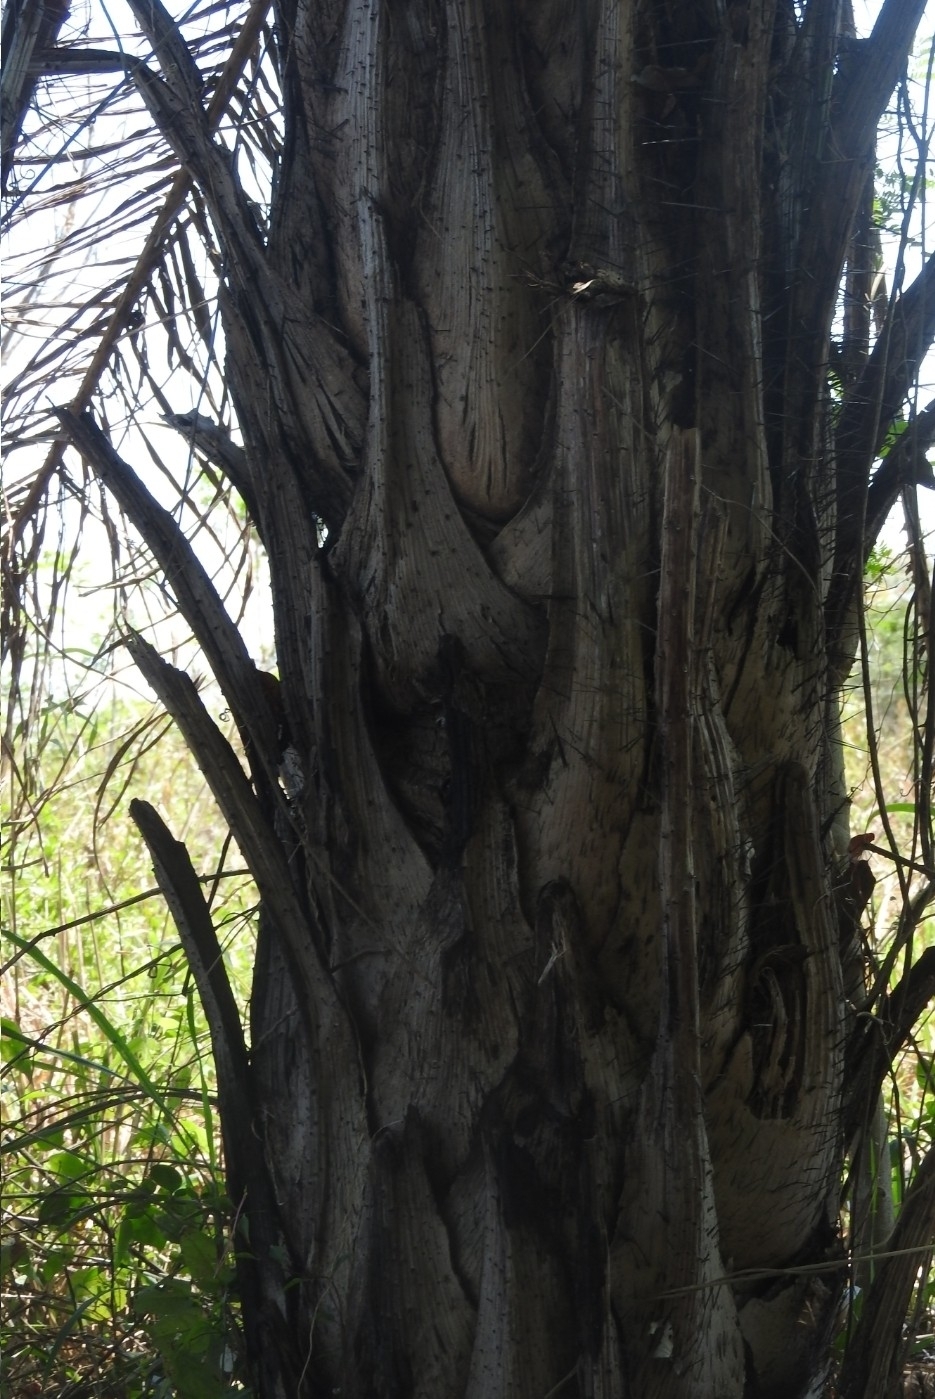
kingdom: Plantae
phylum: Tracheophyta
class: Liliopsida
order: Arecales
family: Arecaceae
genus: Acrocomia
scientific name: Acrocomia aculeata
